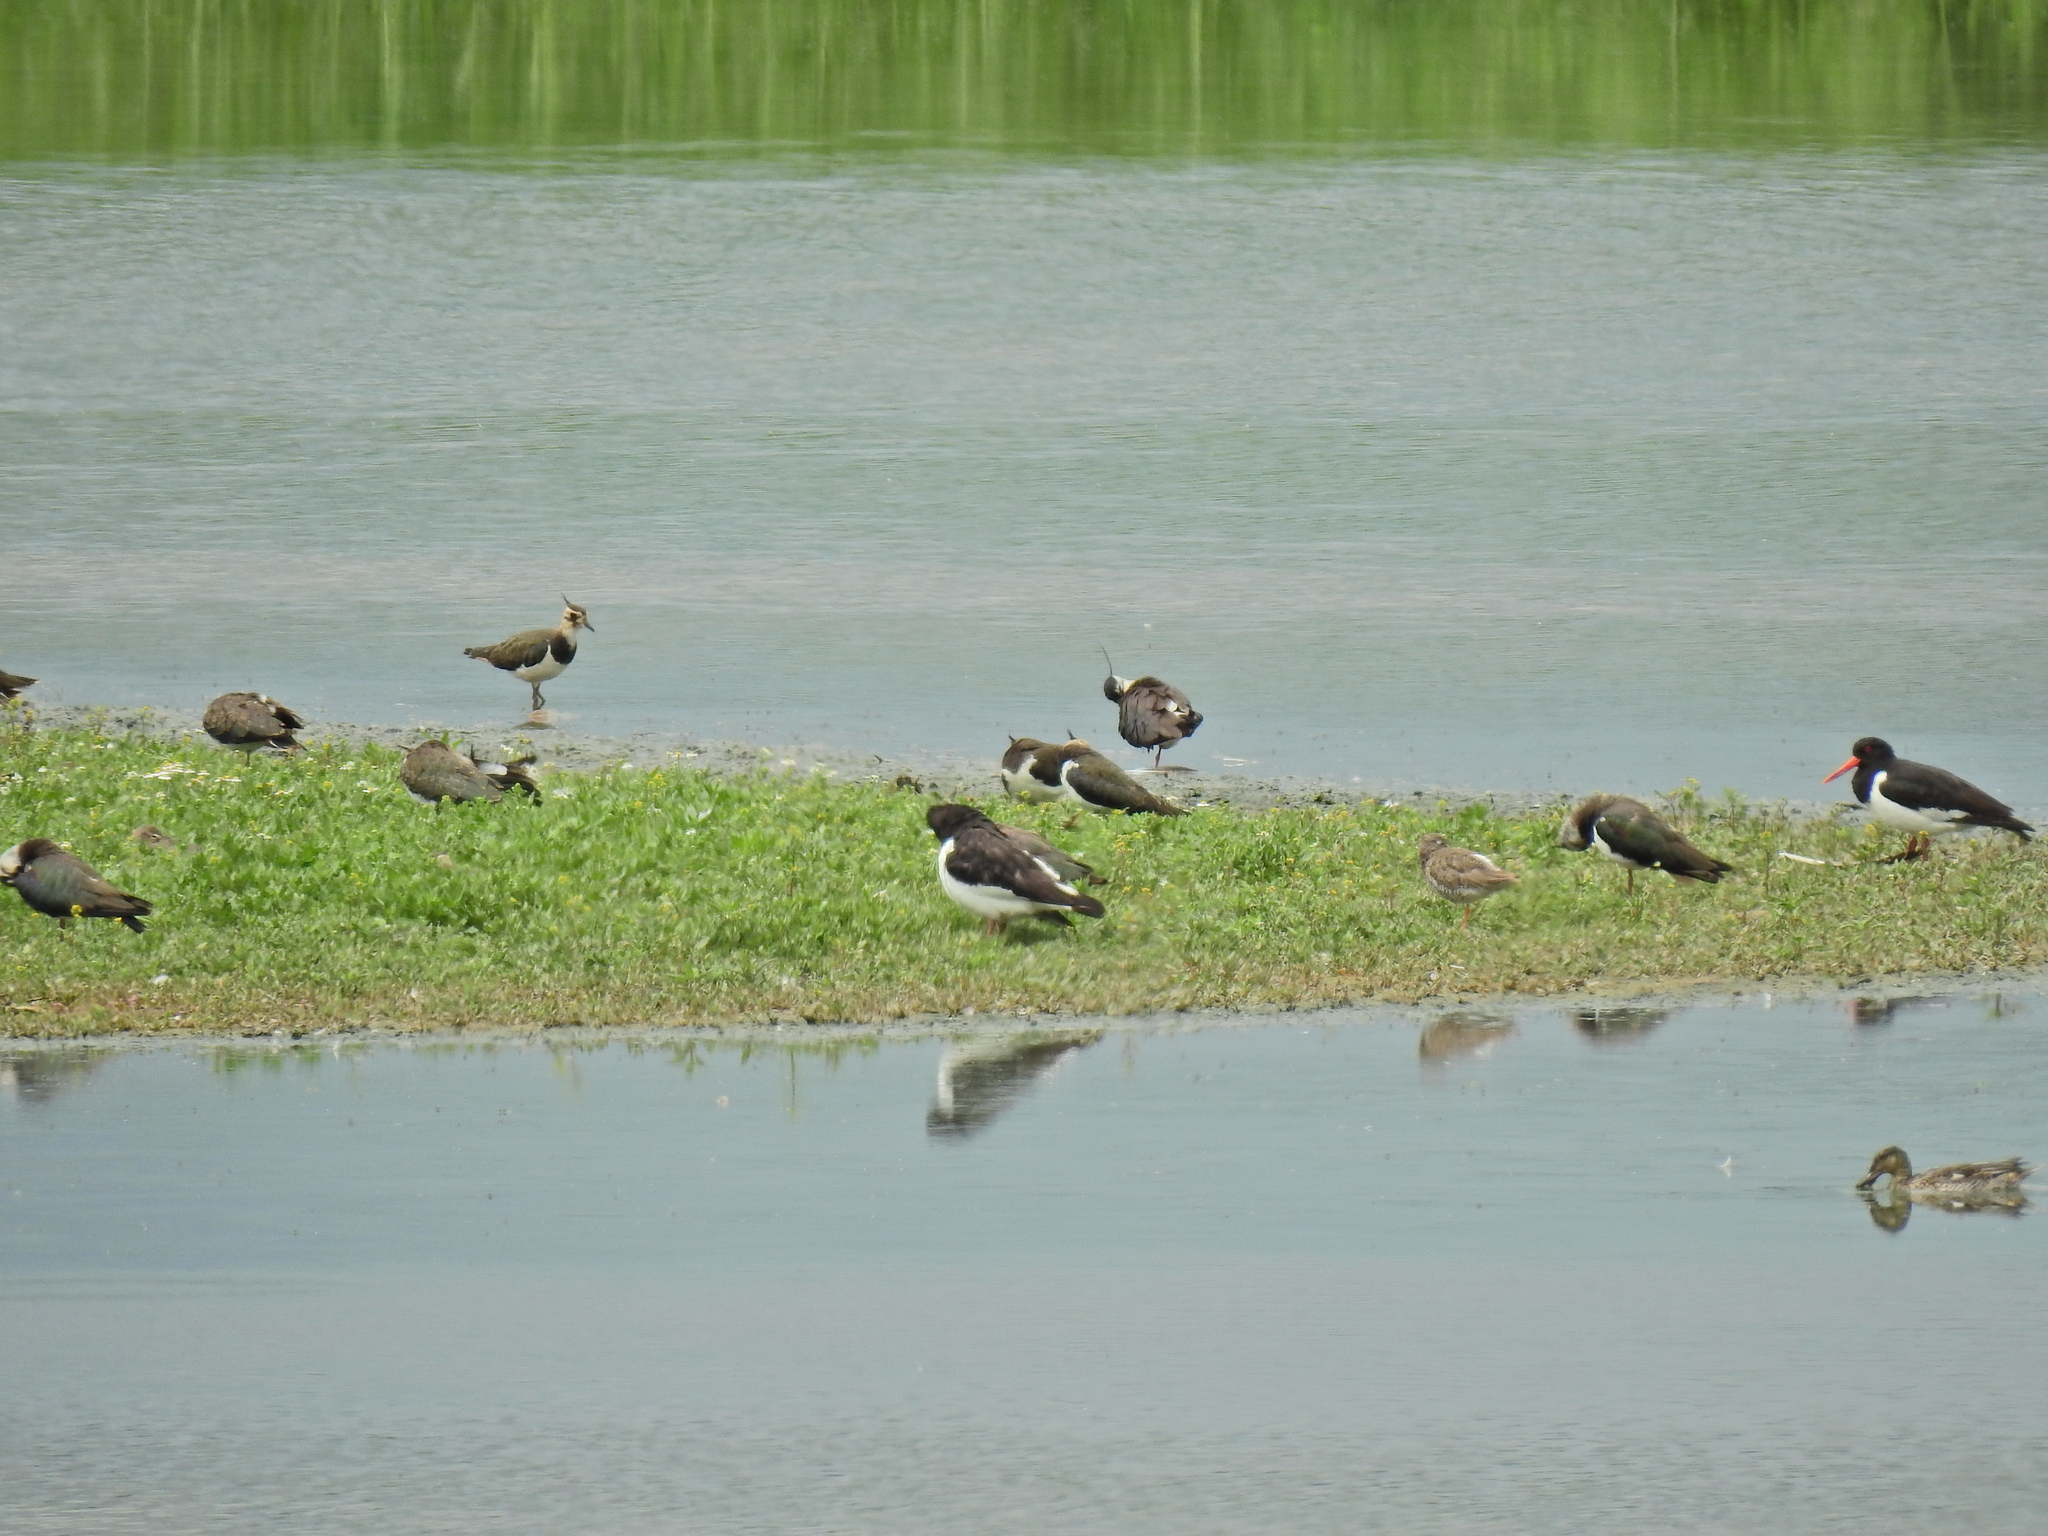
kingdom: Animalia
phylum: Chordata
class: Aves
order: Charadriiformes
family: Charadriidae
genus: Vanellus
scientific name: Vanellus vanellus
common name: Northern lapwing
